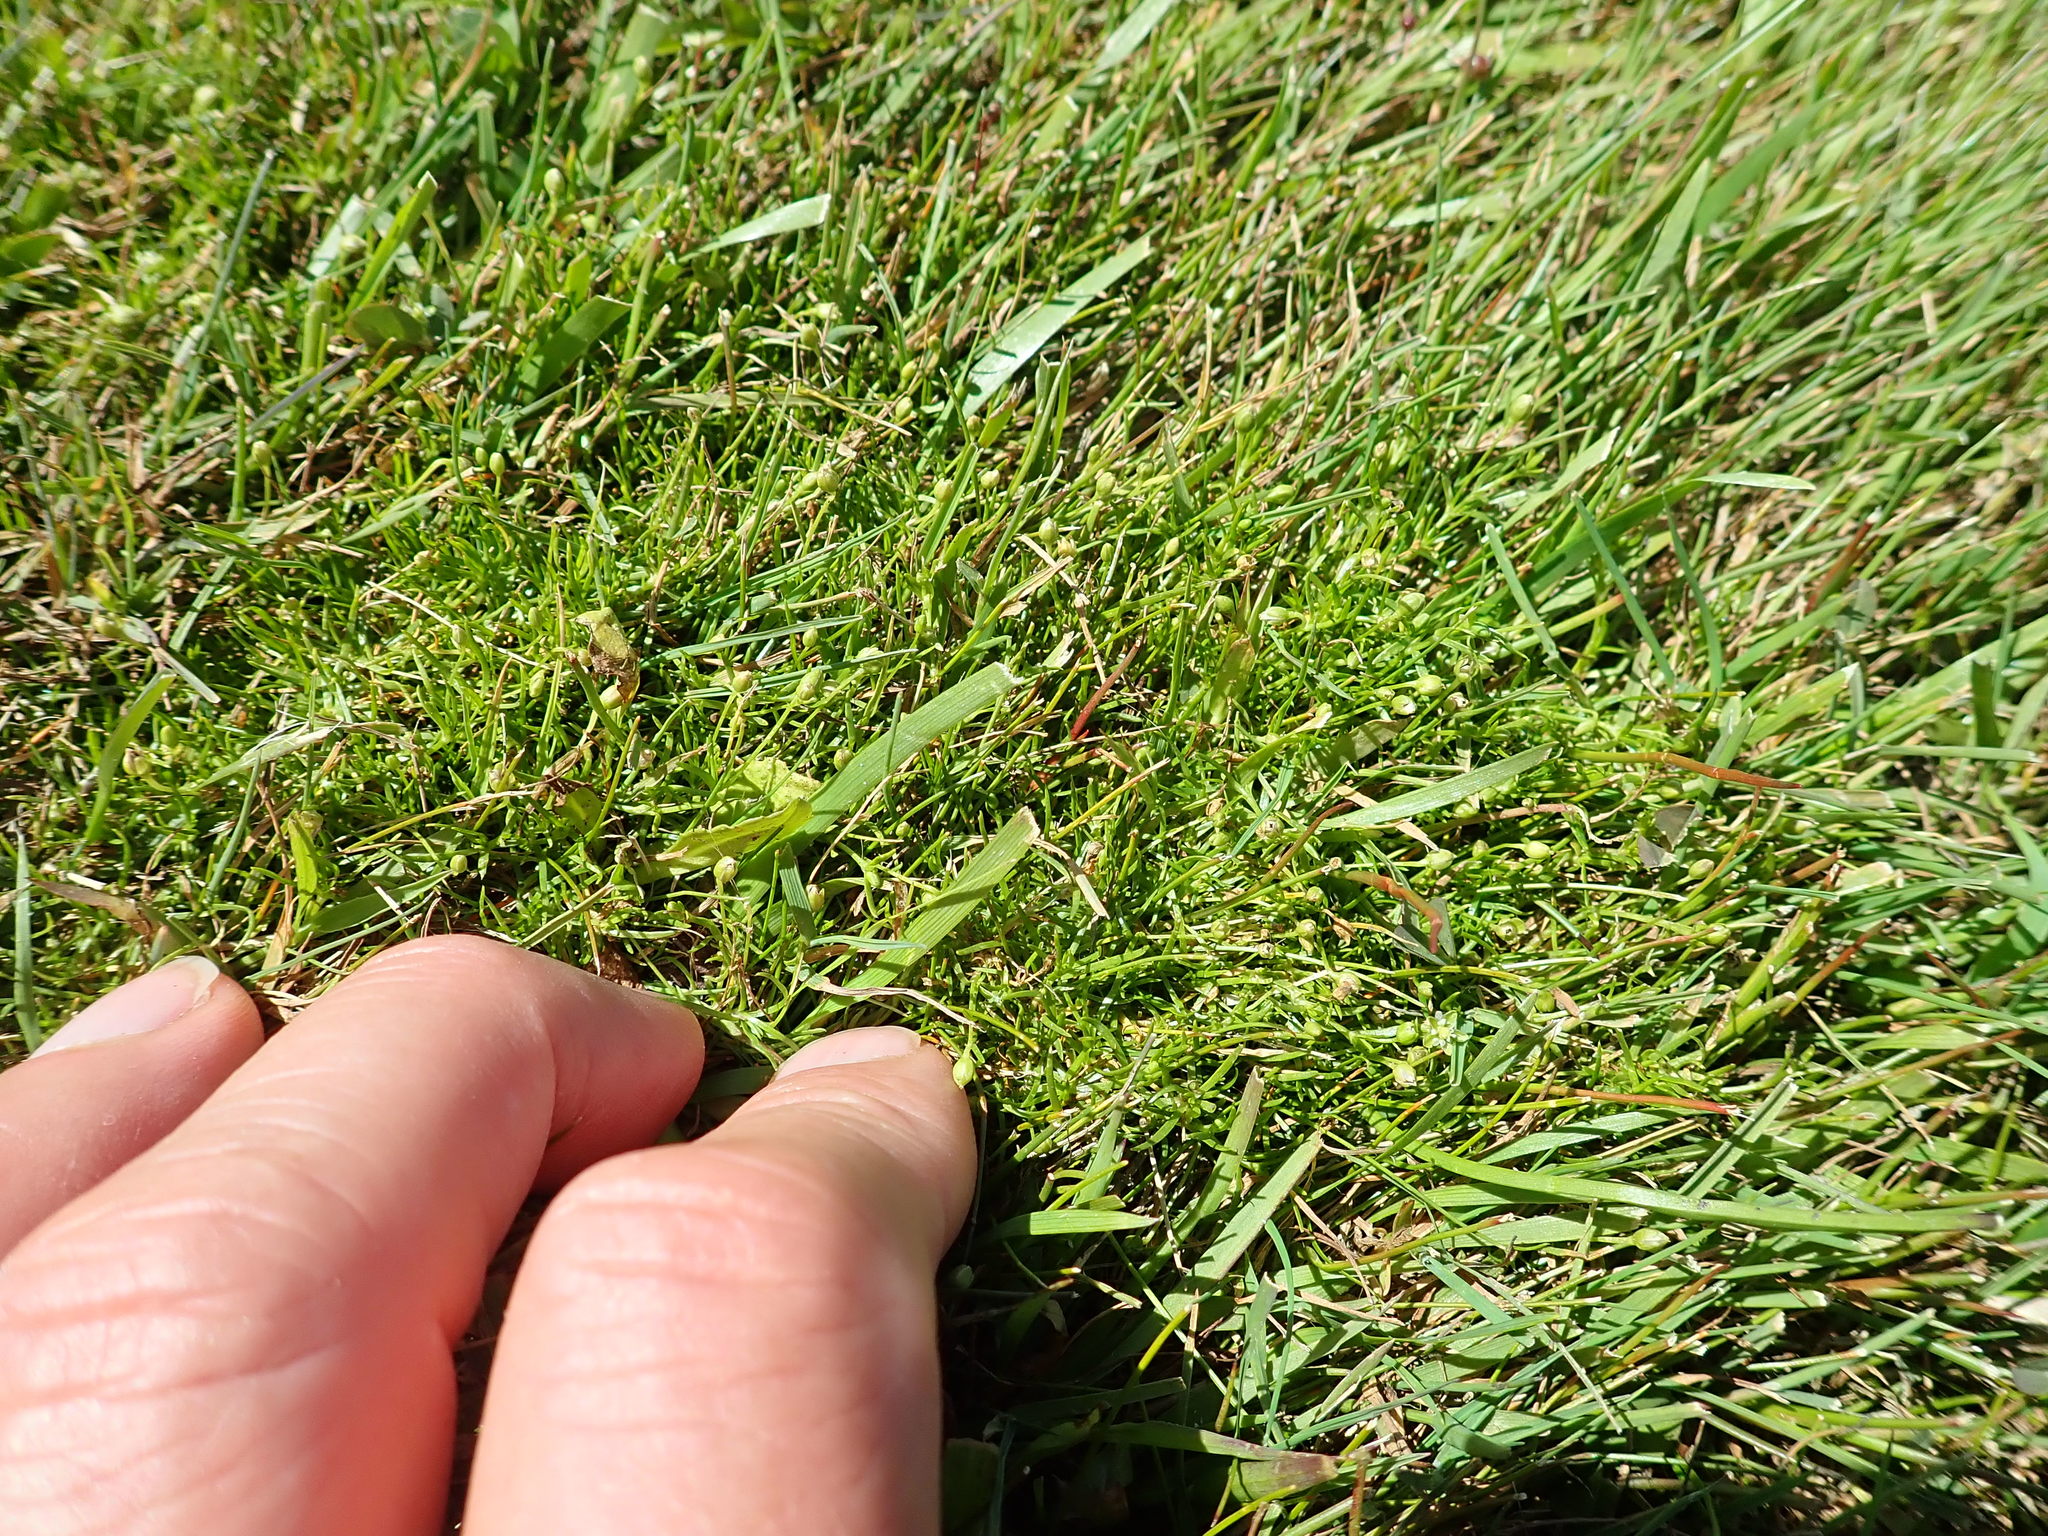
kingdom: Plantae
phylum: Tracheophyta
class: Magnoliopsida
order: Caryophyllales
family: Caryophyllaceae
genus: Sagina
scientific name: Sagina procumbens
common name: Procumbent pearlwort
